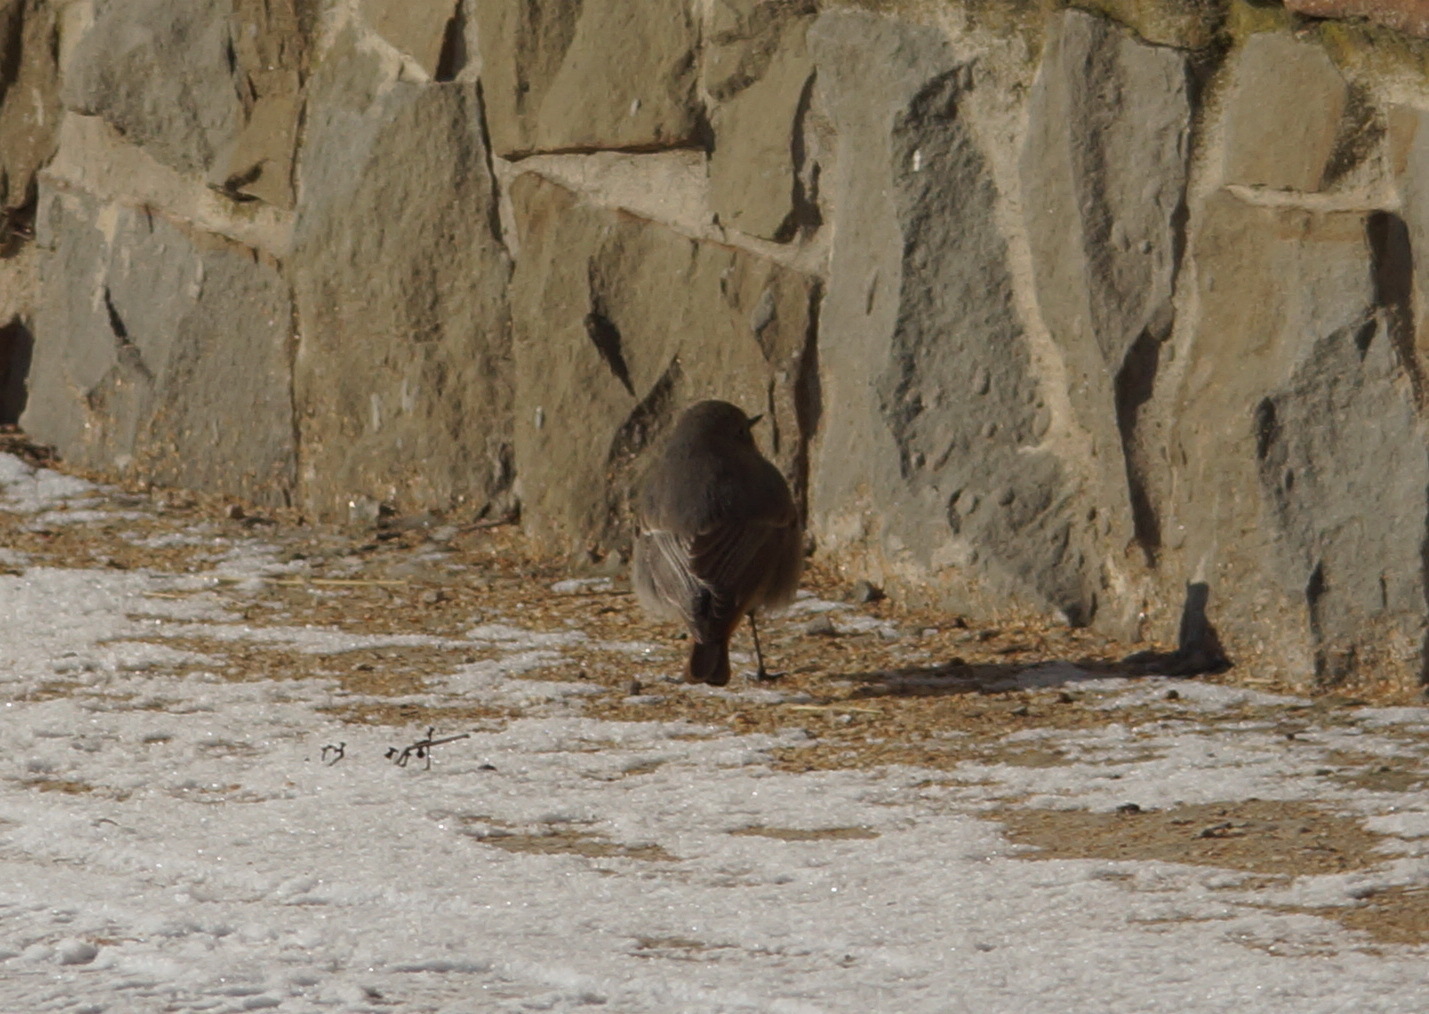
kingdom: Animalia
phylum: Chordata
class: Aves
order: Passeriformes
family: Muscicapidae
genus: Phoenicurus
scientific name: Phoenicurus ochruros
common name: Black redstart
